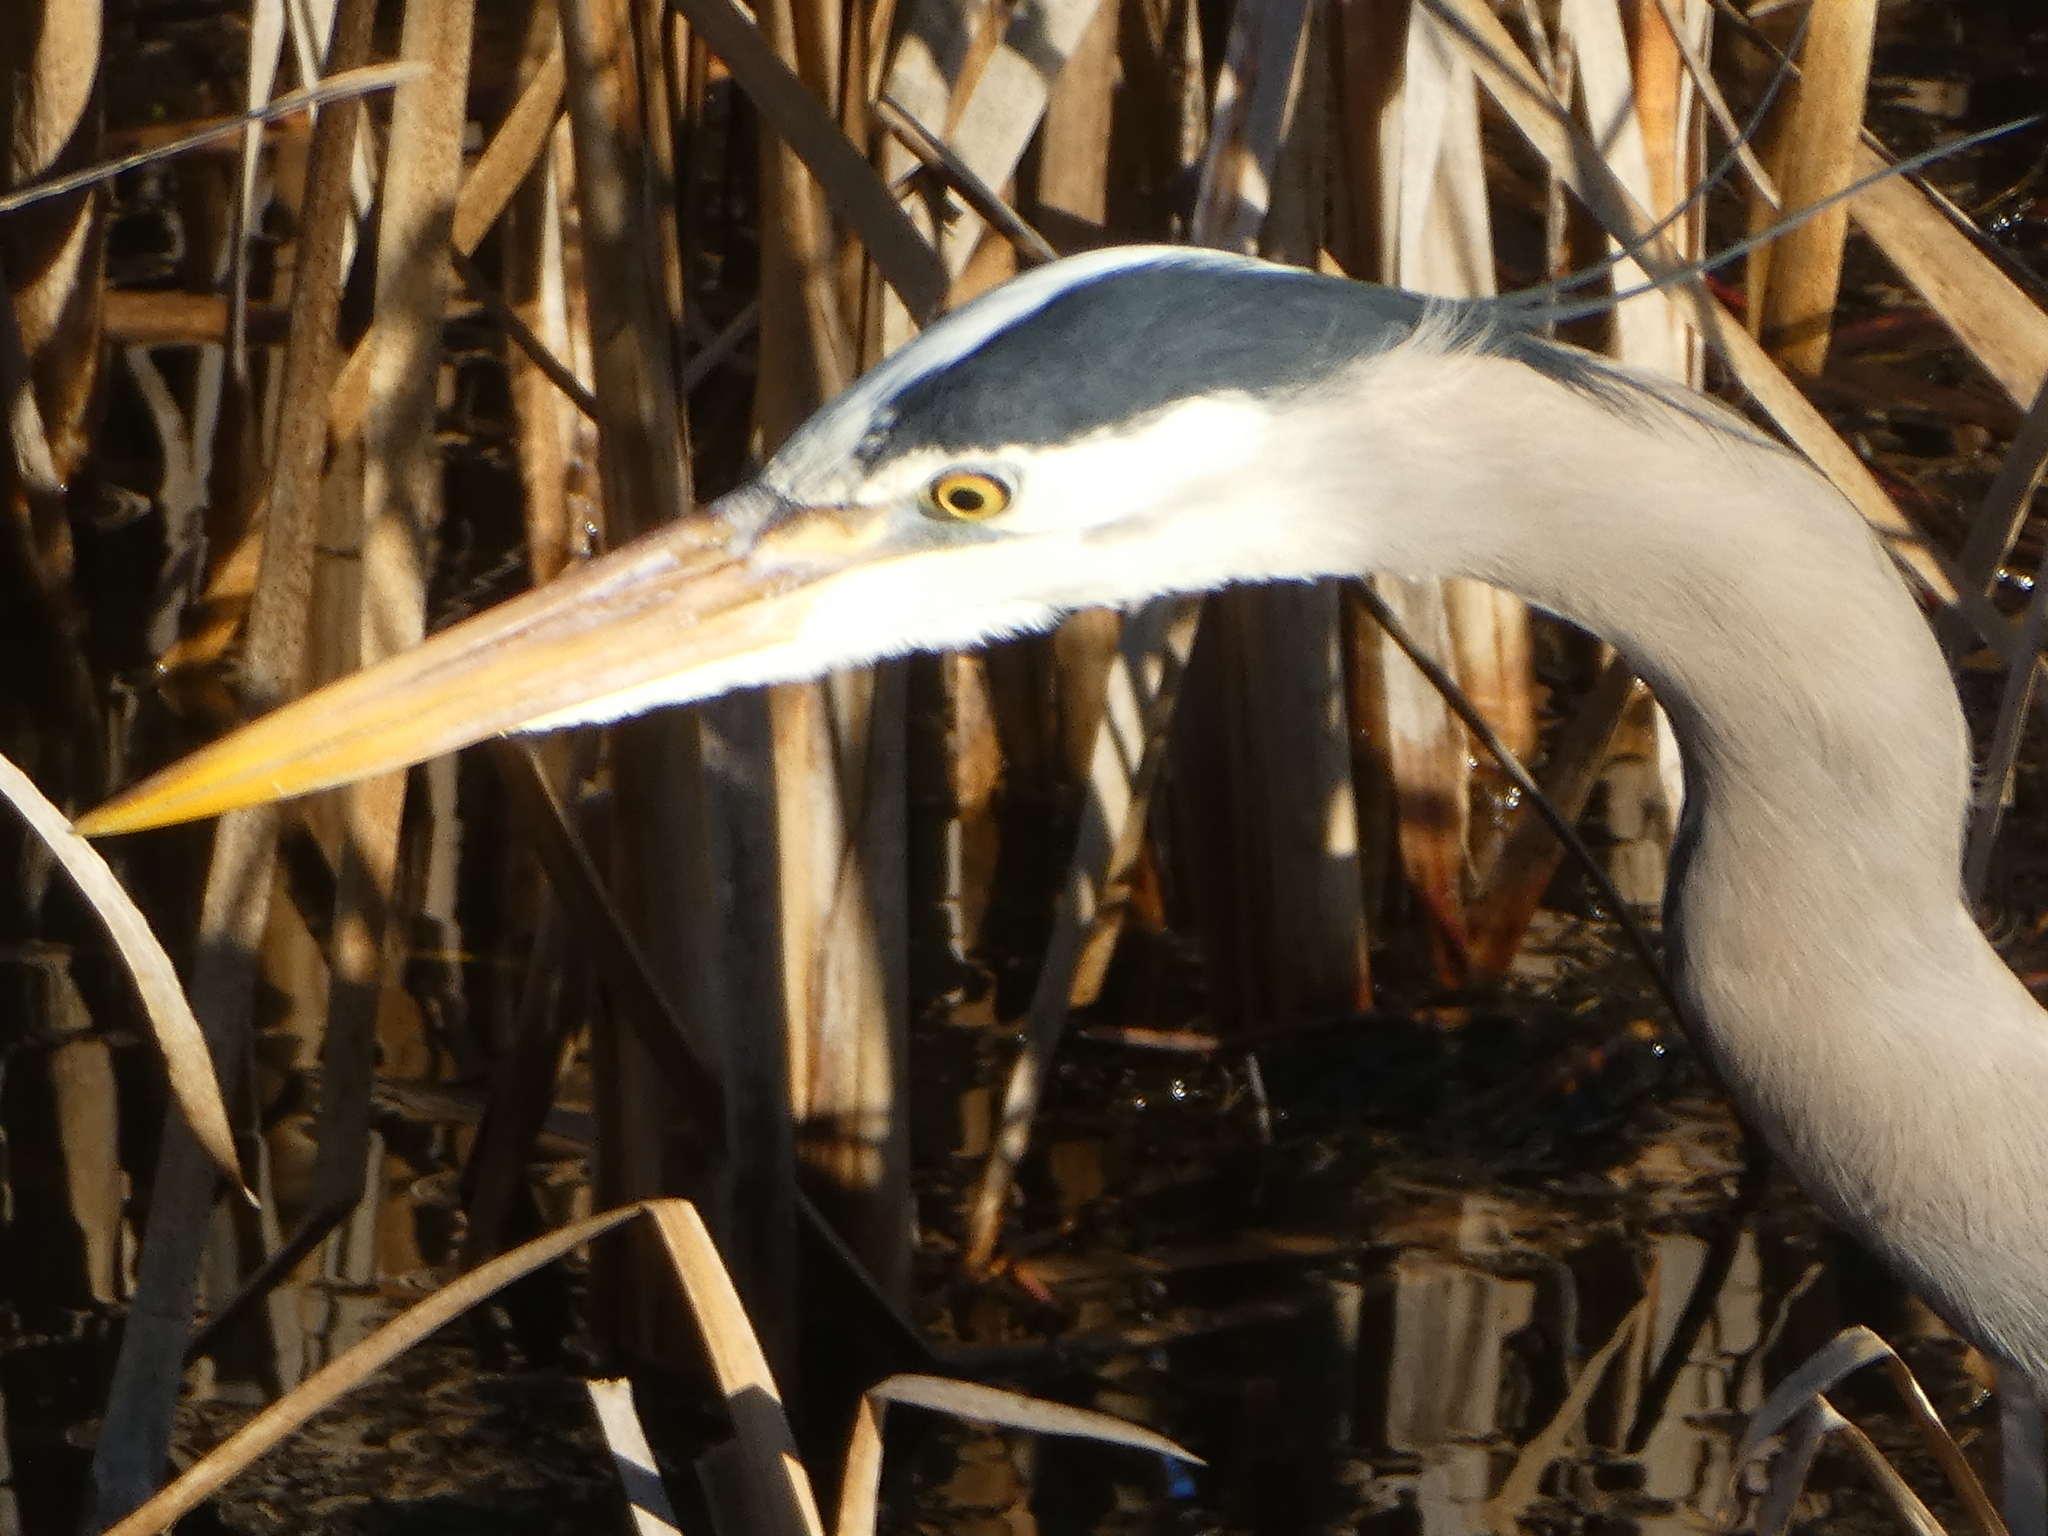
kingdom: Animalia
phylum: Chordata
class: Aves
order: Pelecaniformes
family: Ardeidae
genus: Ardea
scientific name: Ardea herodias
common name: Great blue heron
